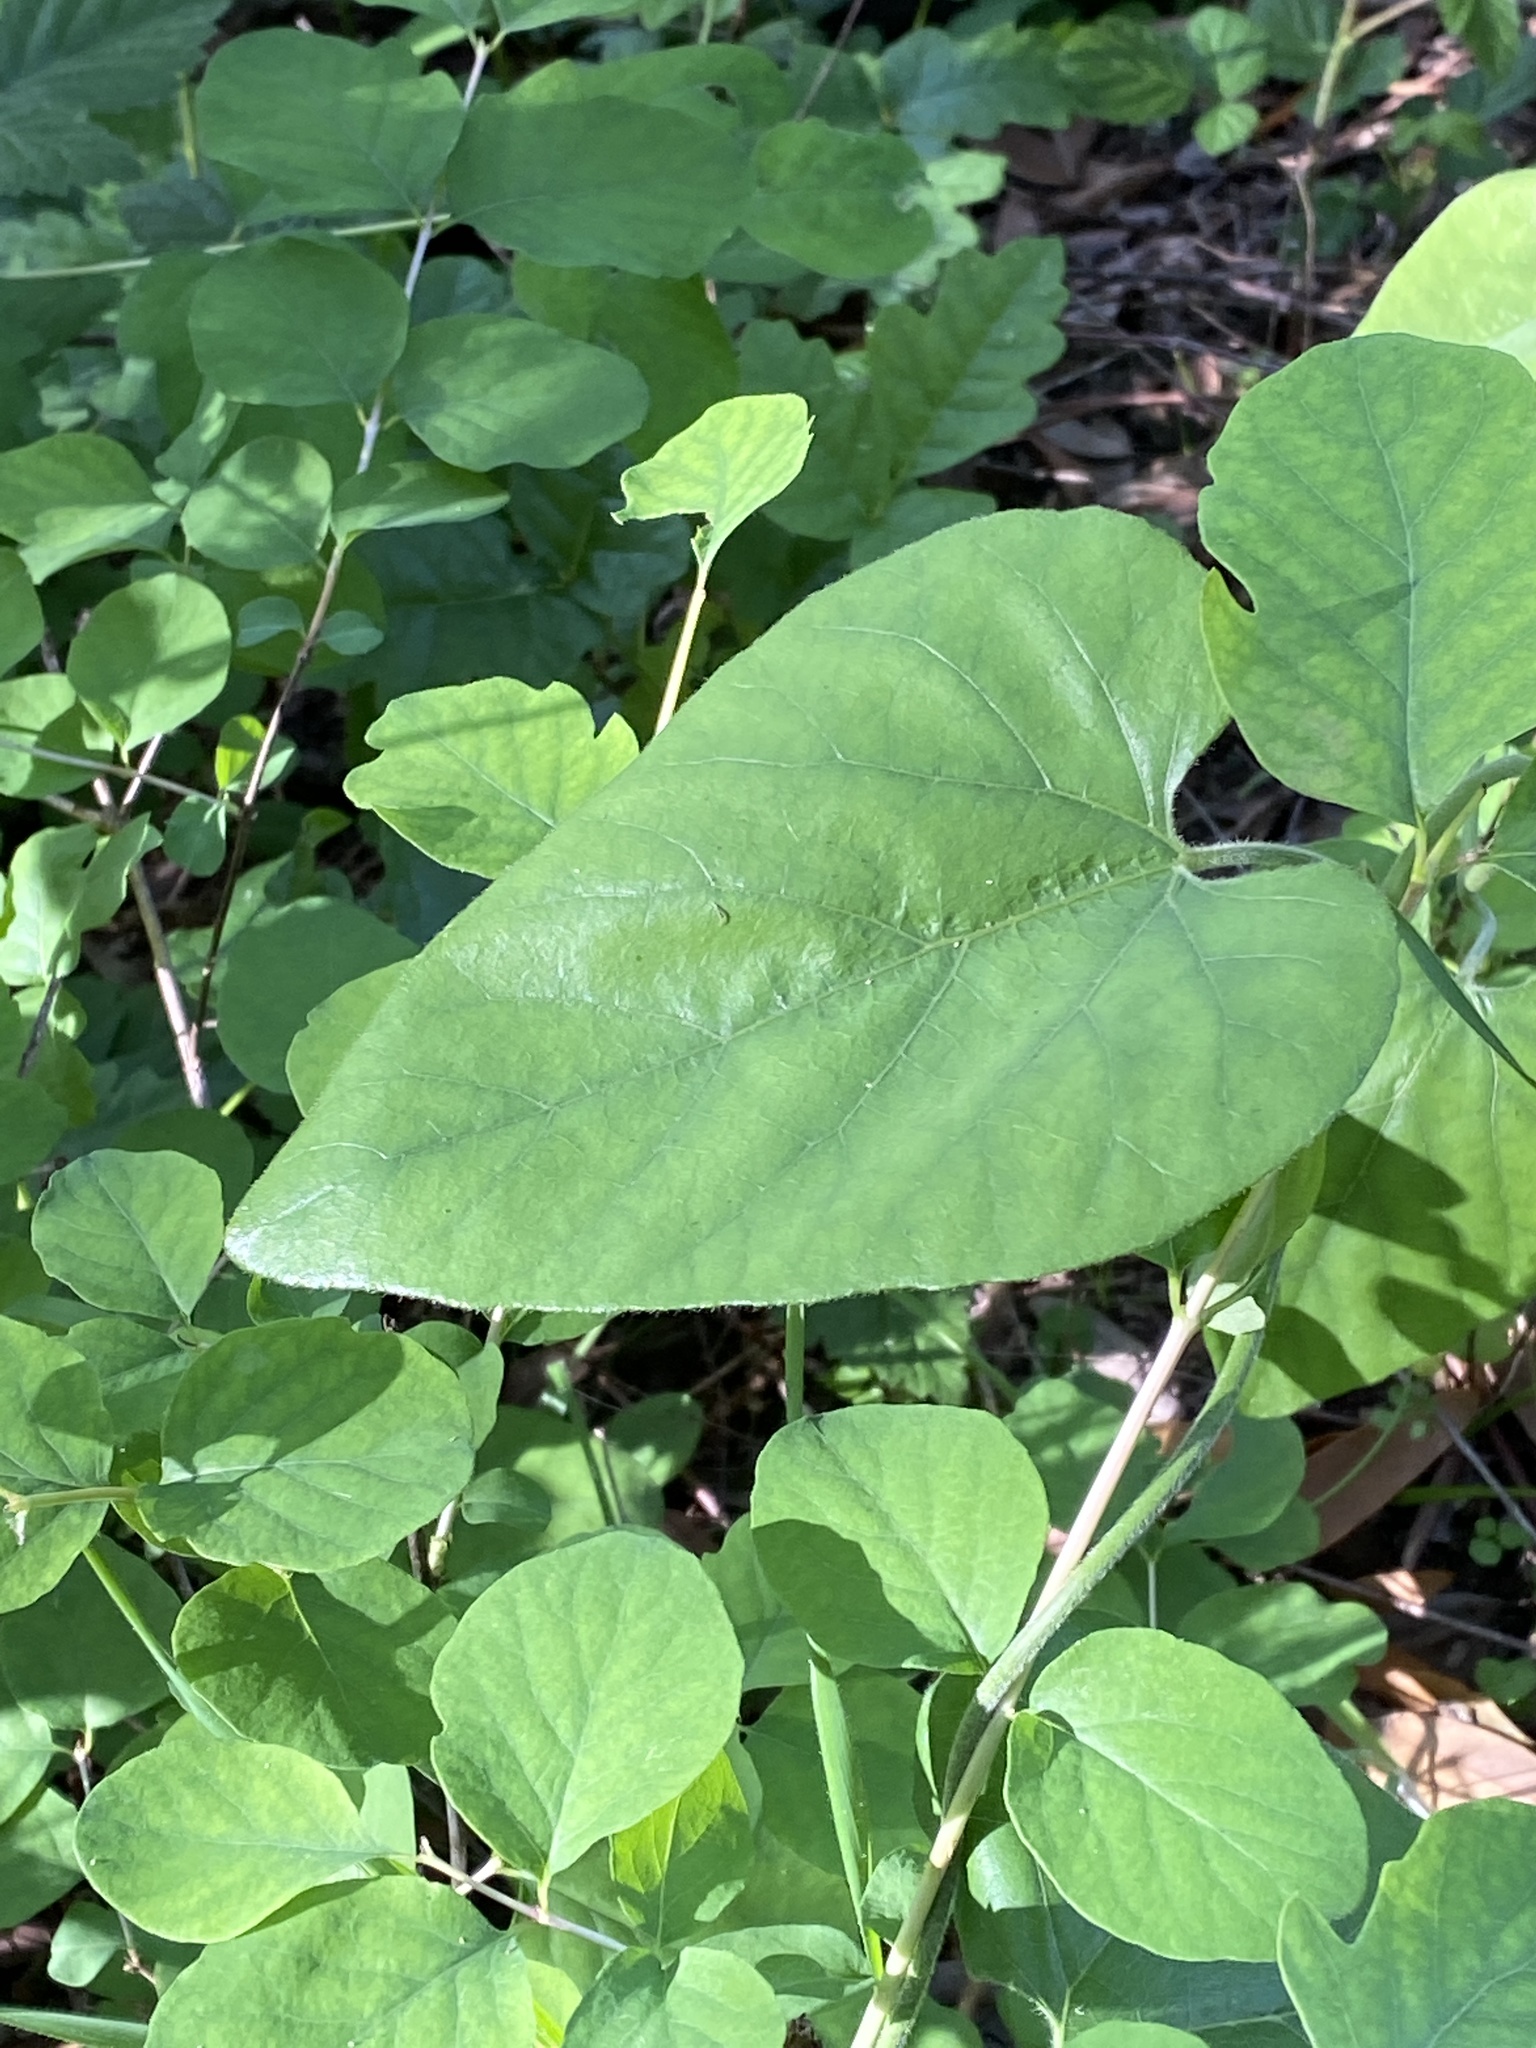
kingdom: Plantae
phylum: Tracheophyta
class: Magnoliopsida
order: Piperales
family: Aristolochiaceae
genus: Isotrema
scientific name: Isotrema californicum
